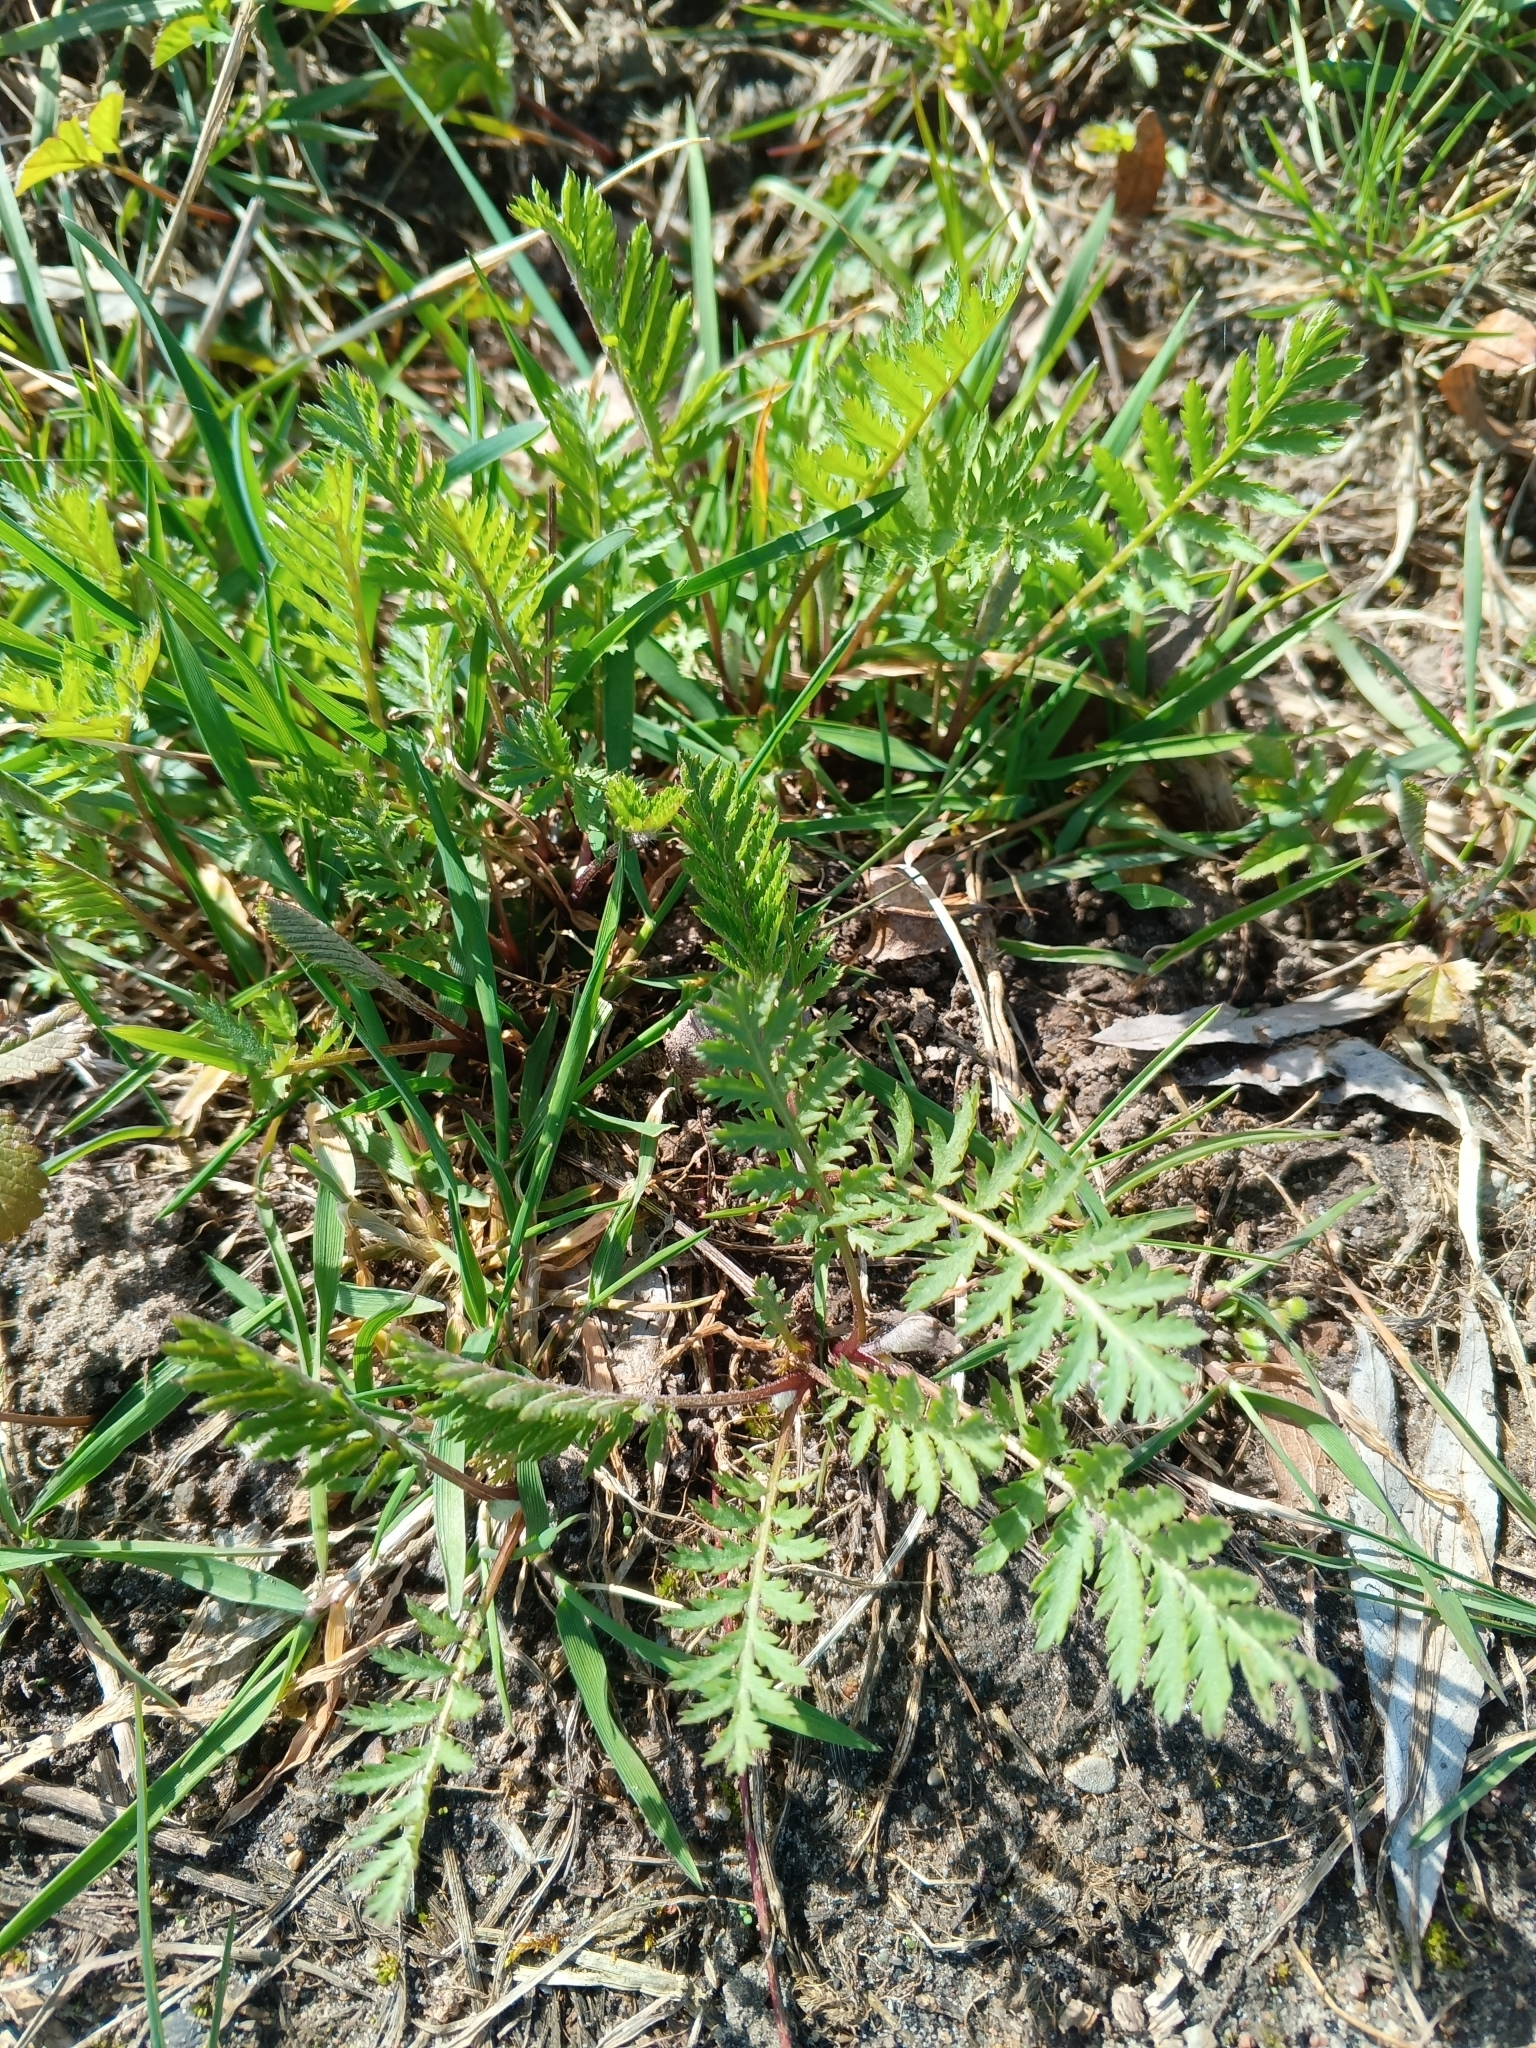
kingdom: Plantae
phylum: Tracheophyta
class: Magnoliopsida
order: Asterales
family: Asteraceae
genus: Tanacetum
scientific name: Tanacetum vulgare
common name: Common tansy
